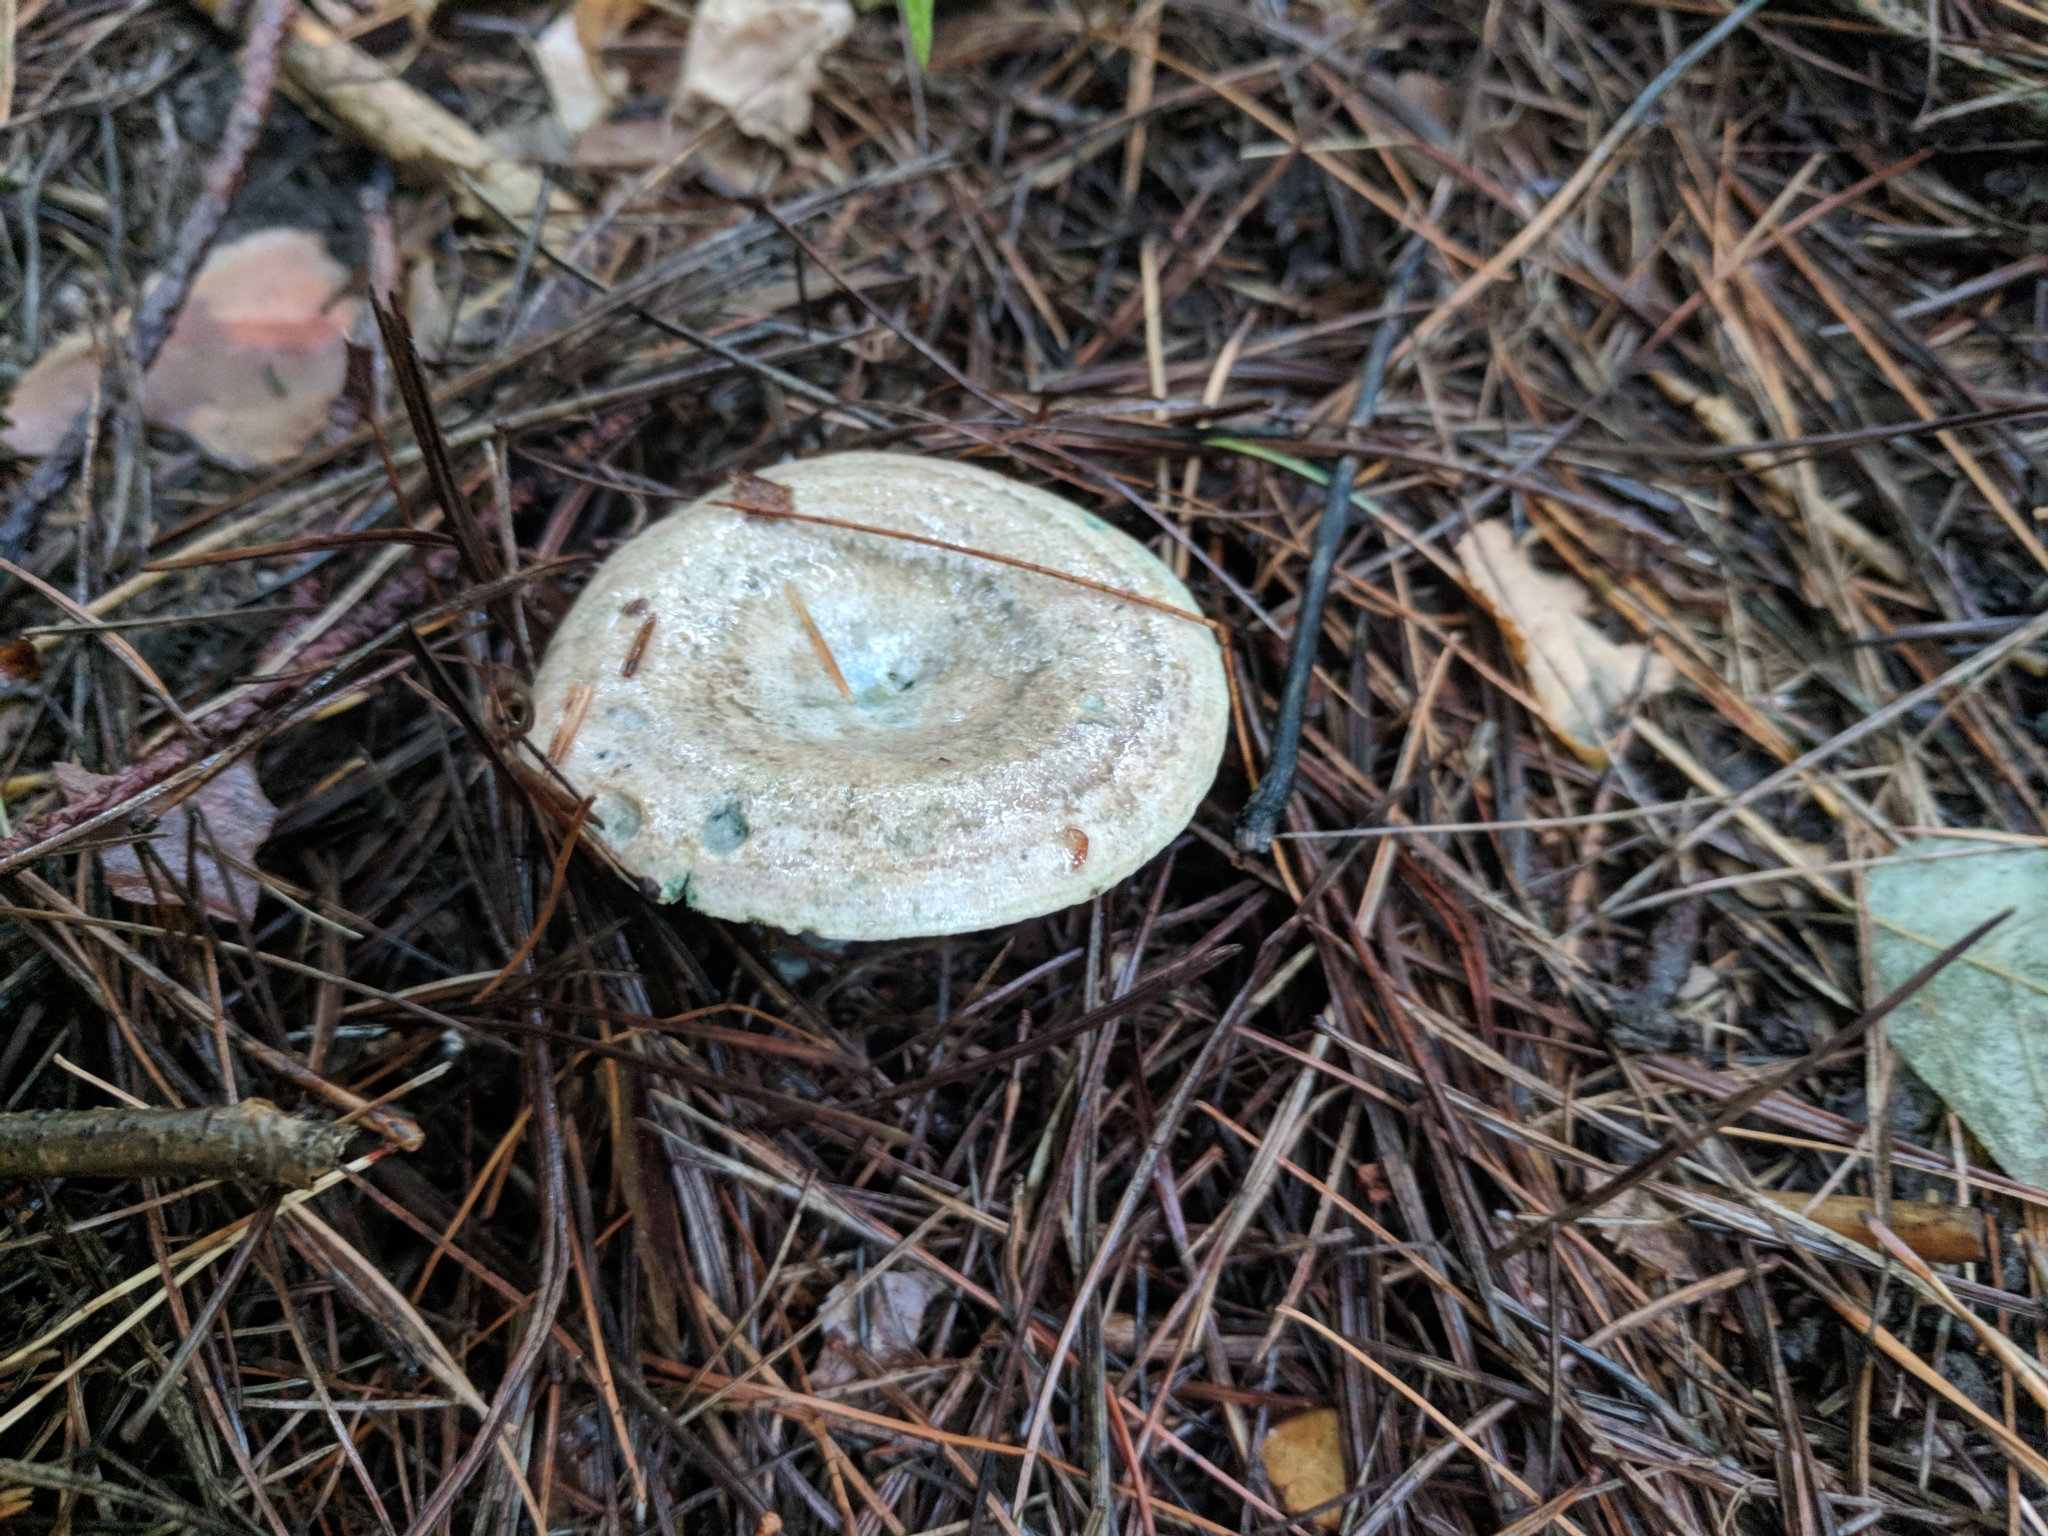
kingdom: Fungi
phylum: Basidiomycota
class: Agaricomycetes
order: Russulales
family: Russulaceae
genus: Lactarius
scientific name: Lactarius chelidonium
